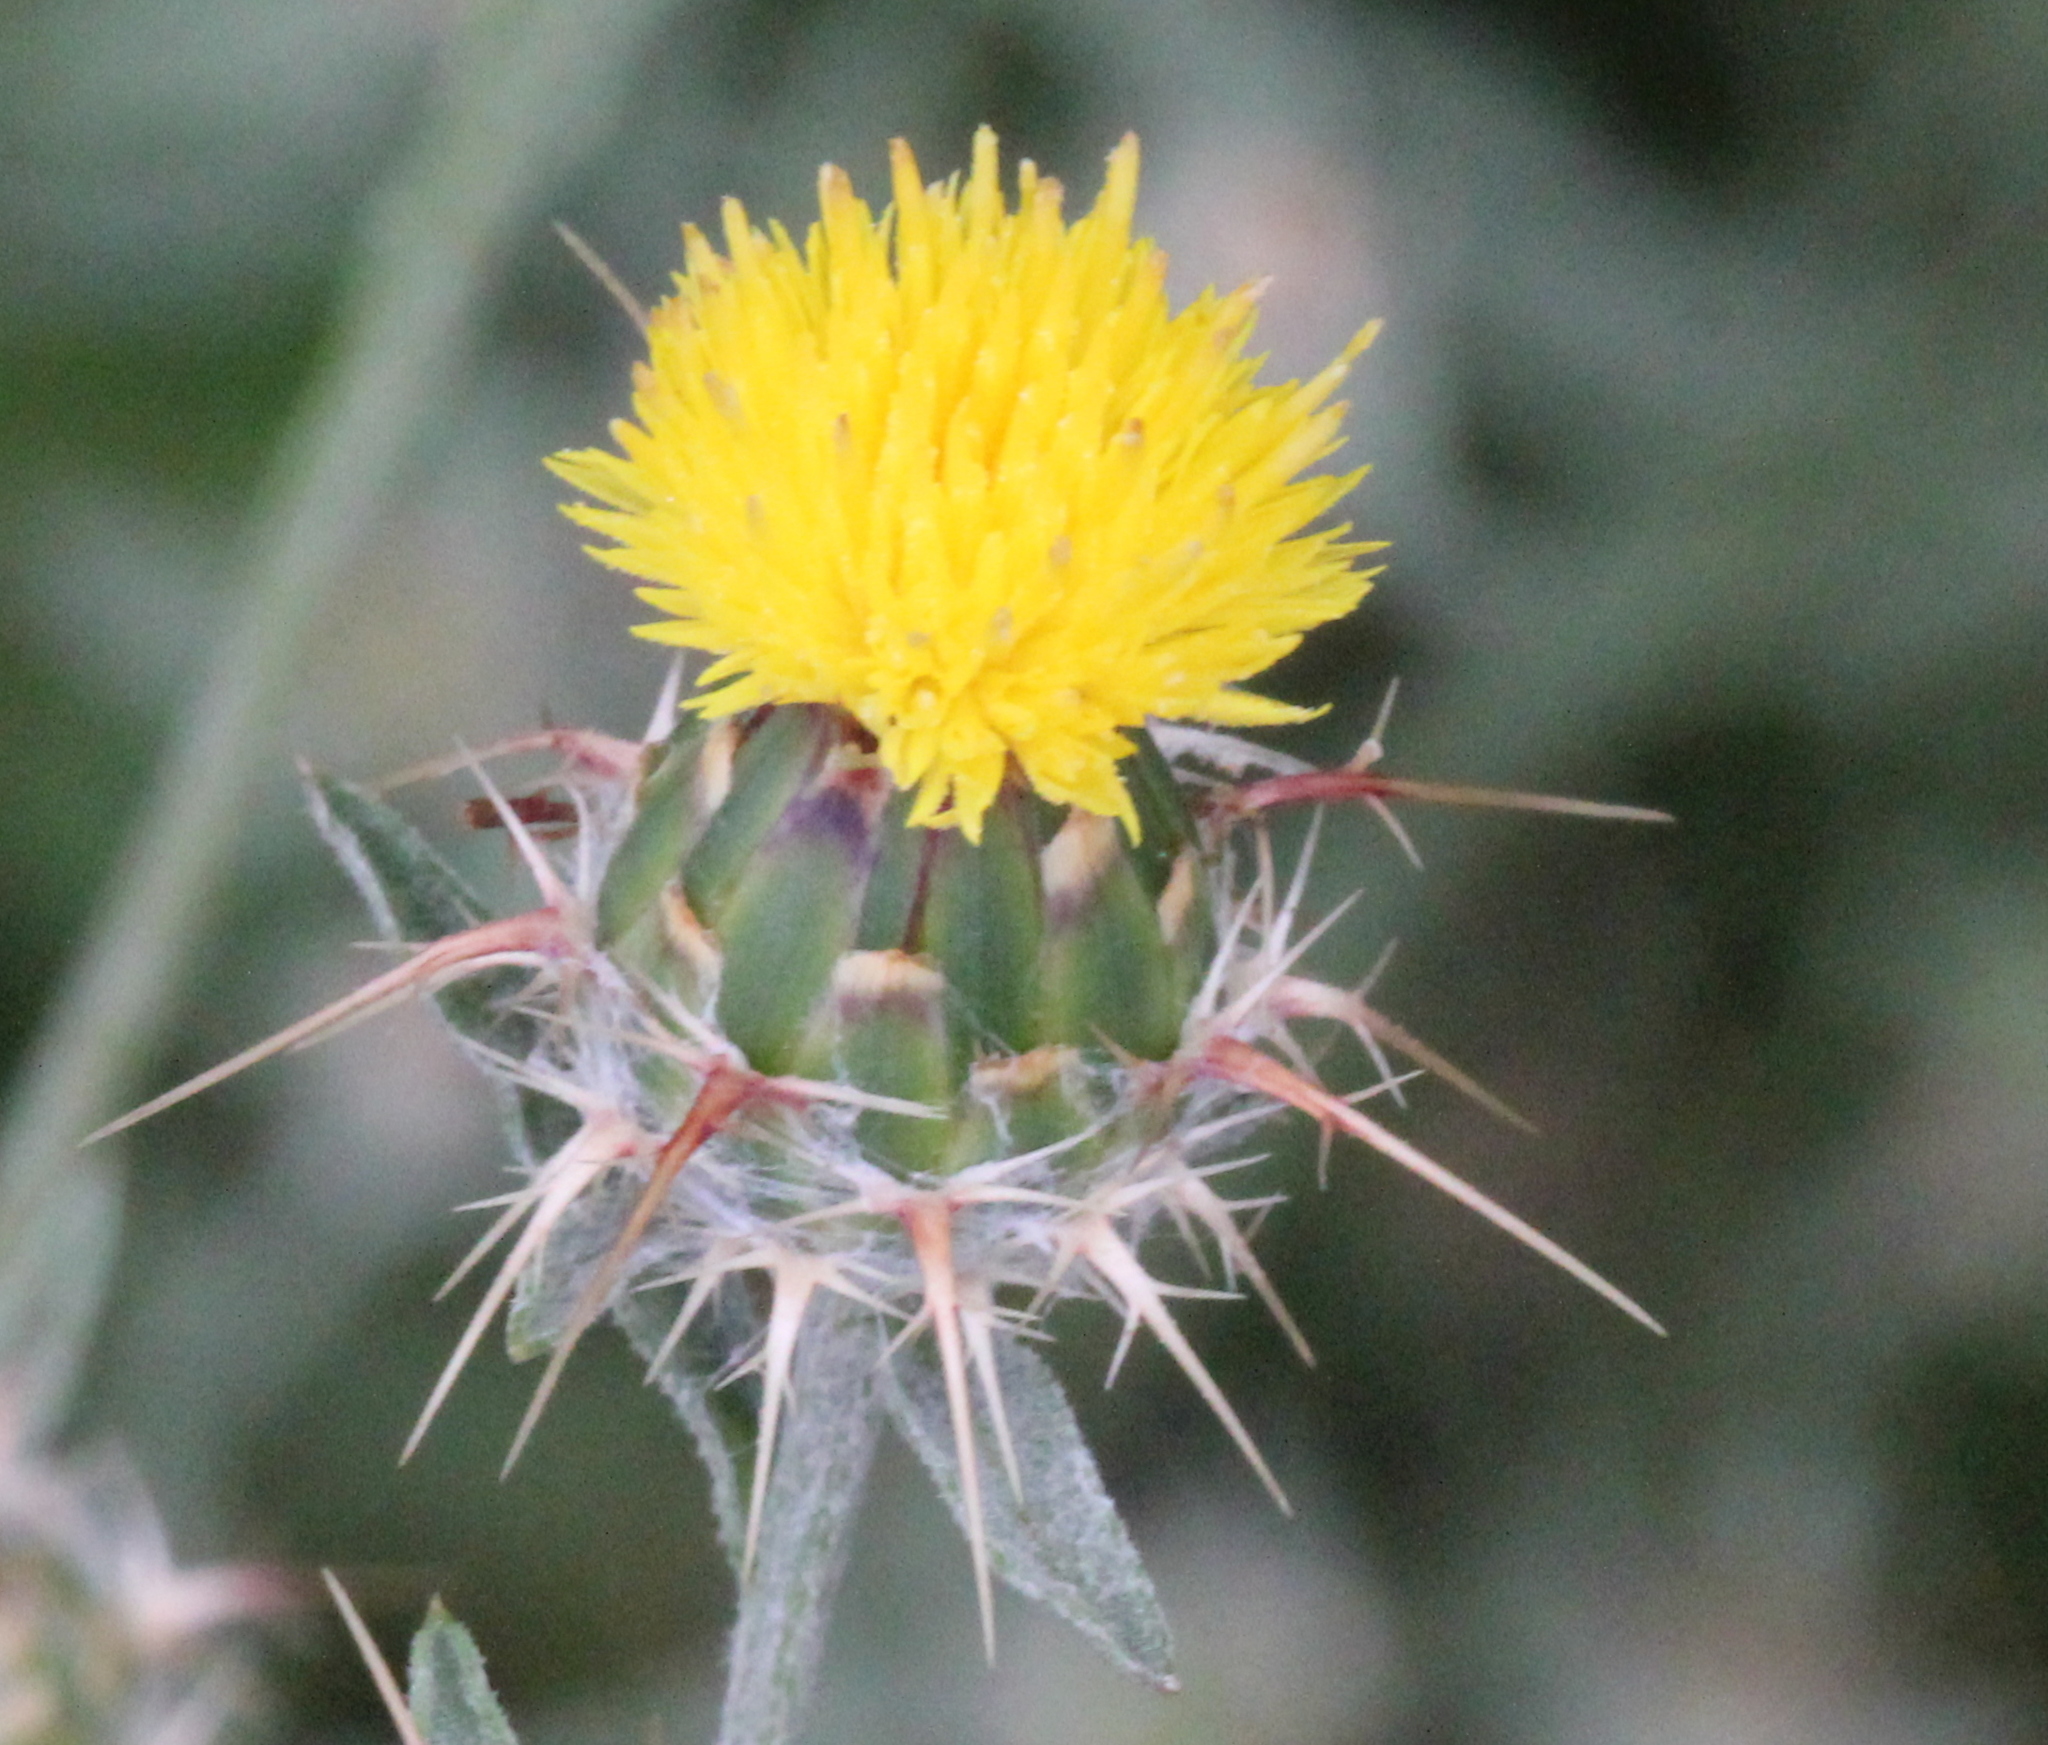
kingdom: Plantae
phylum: Tracheophyta
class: Magnoliopsida
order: Asterales
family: Asteraceae
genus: Centaurea
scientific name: Centaurea melitensis
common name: Maltese star-thistle
